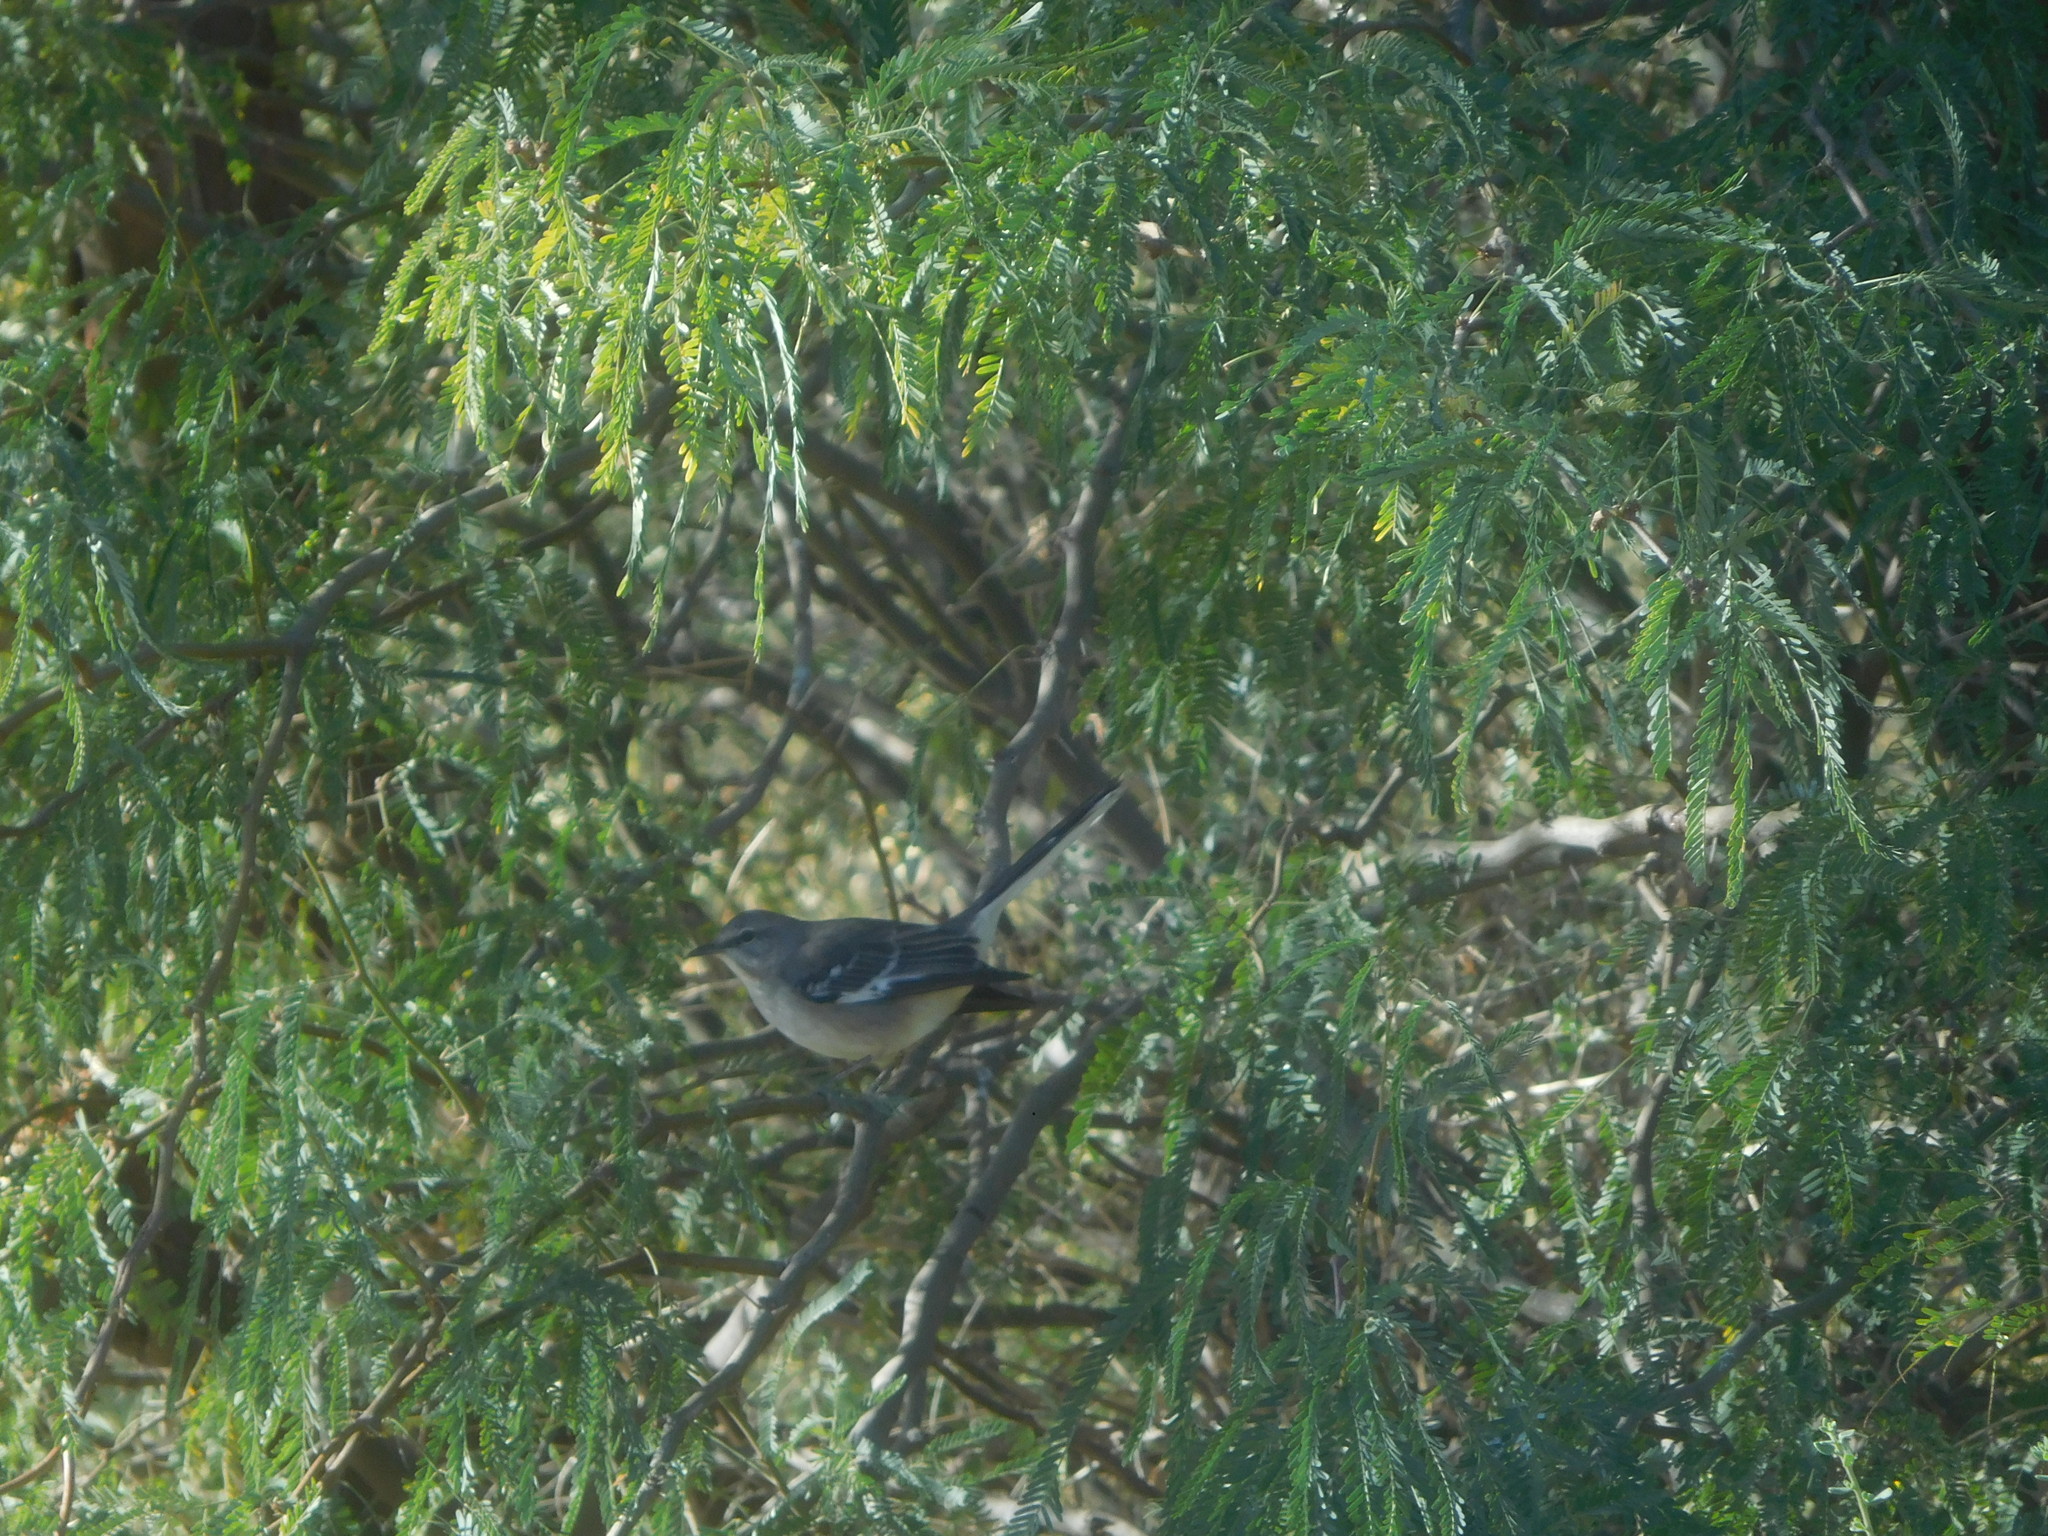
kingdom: Animalia
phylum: Chordata
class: Aves
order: Passeriformes
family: Mimidae
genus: Mimus
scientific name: Mimus polyglottos
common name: Northern mockingbird
